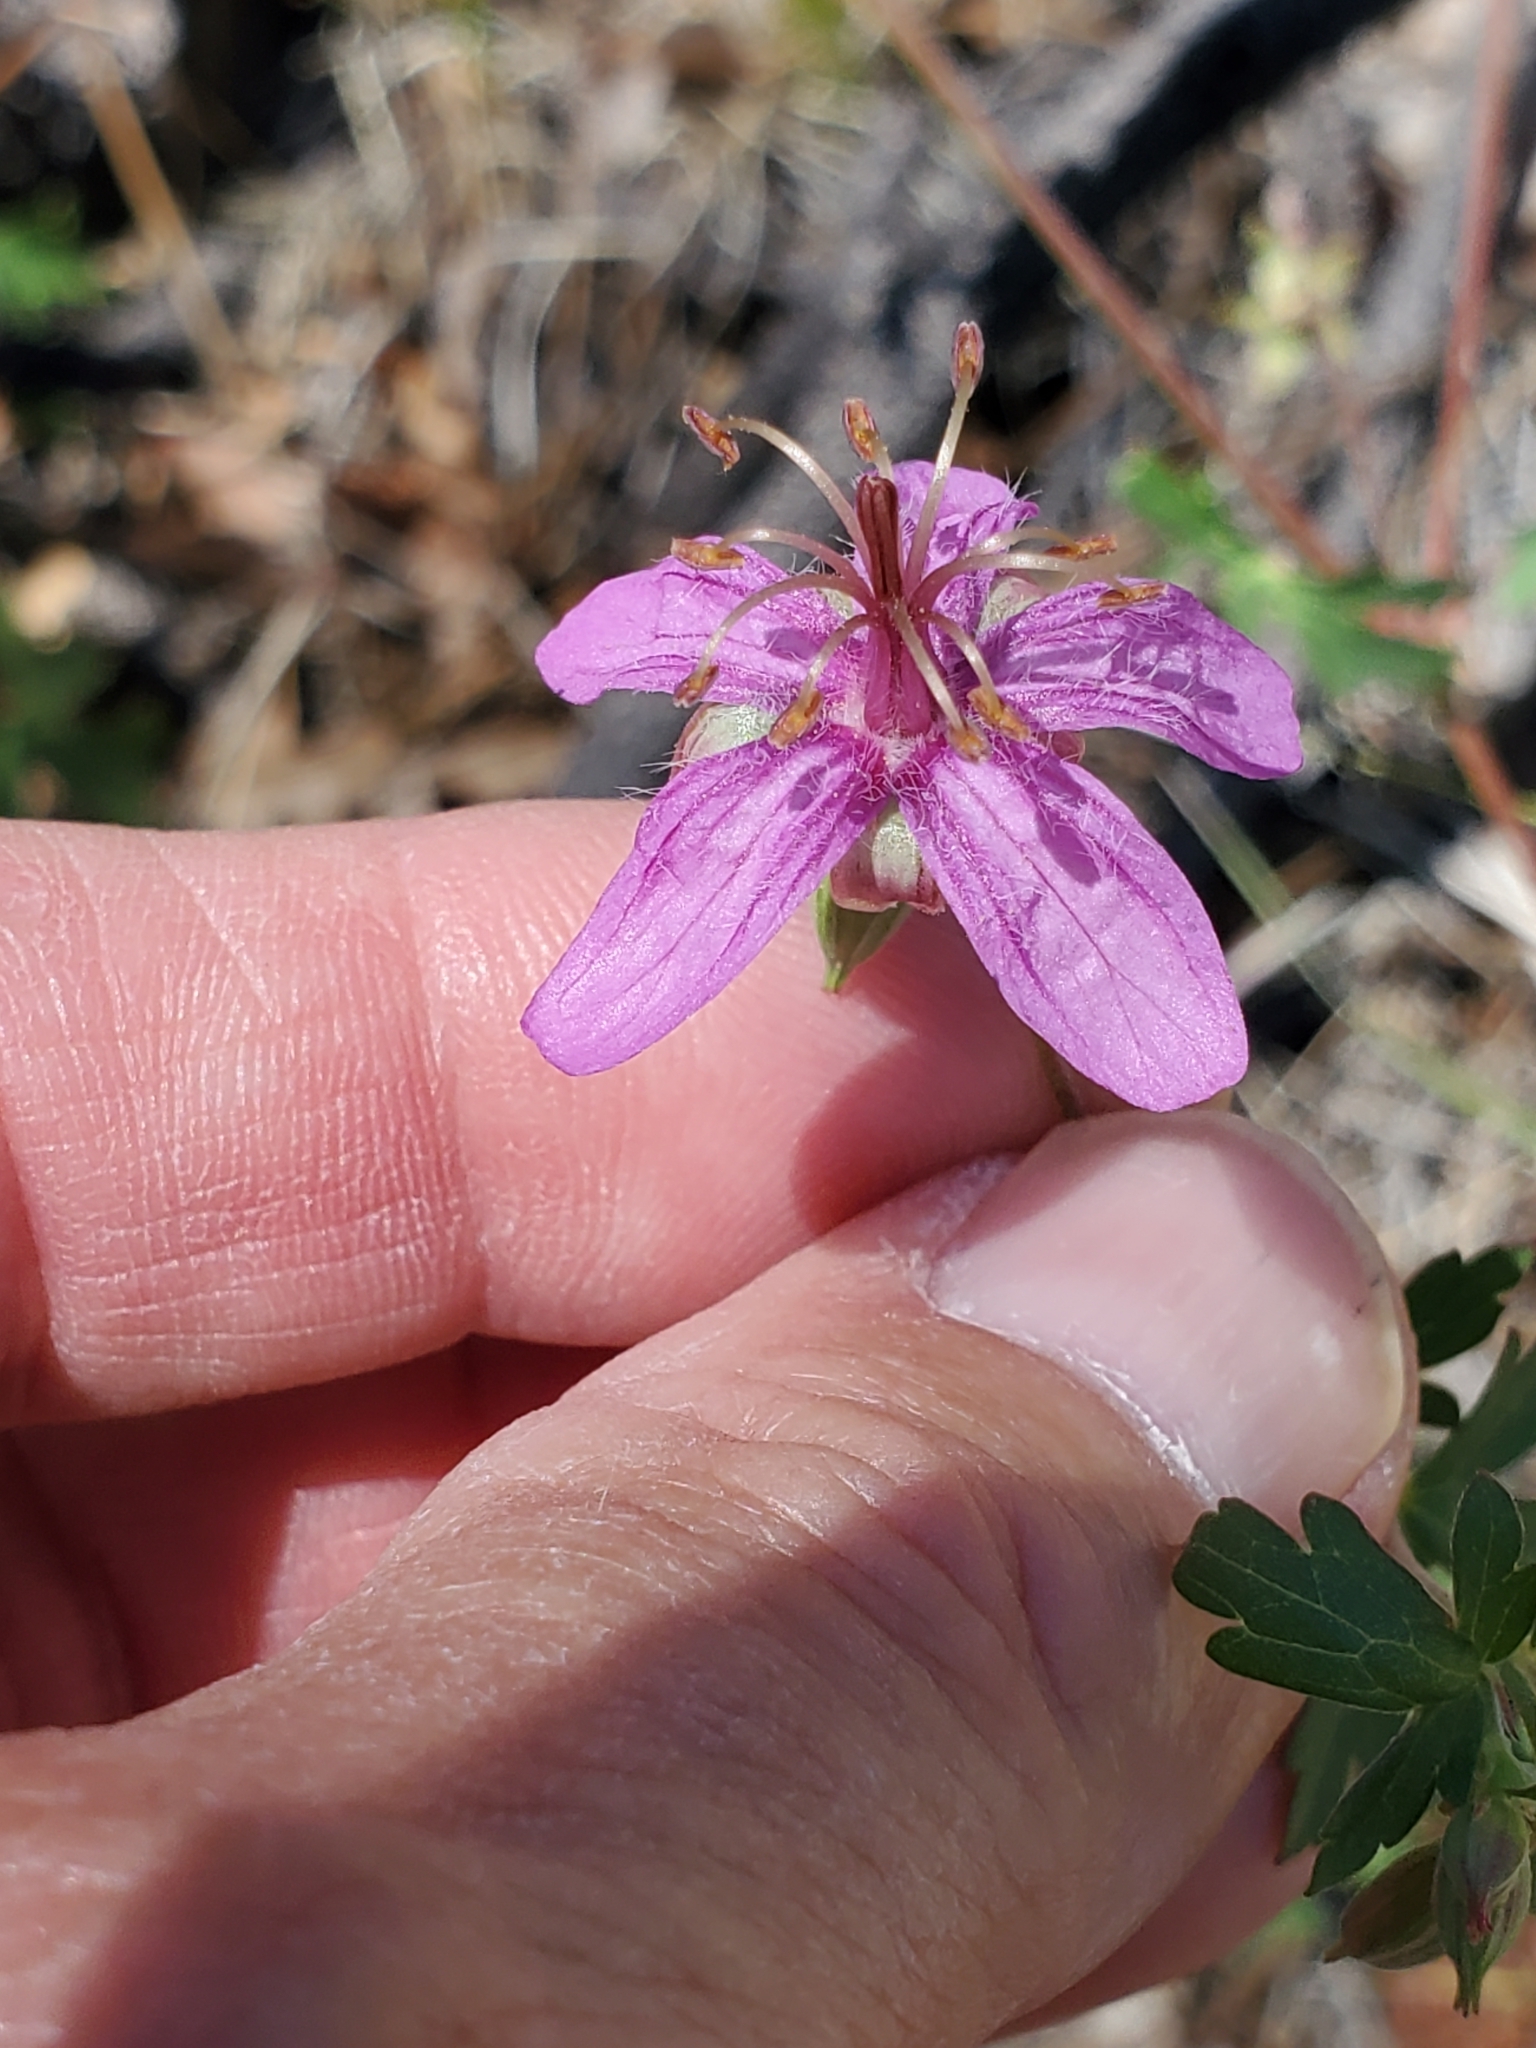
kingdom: Plantae
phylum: Tracheophyta
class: Magnoliopsida
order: Geraniales
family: Geraniaceae
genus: Geranium
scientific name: Geranium caespitosum
